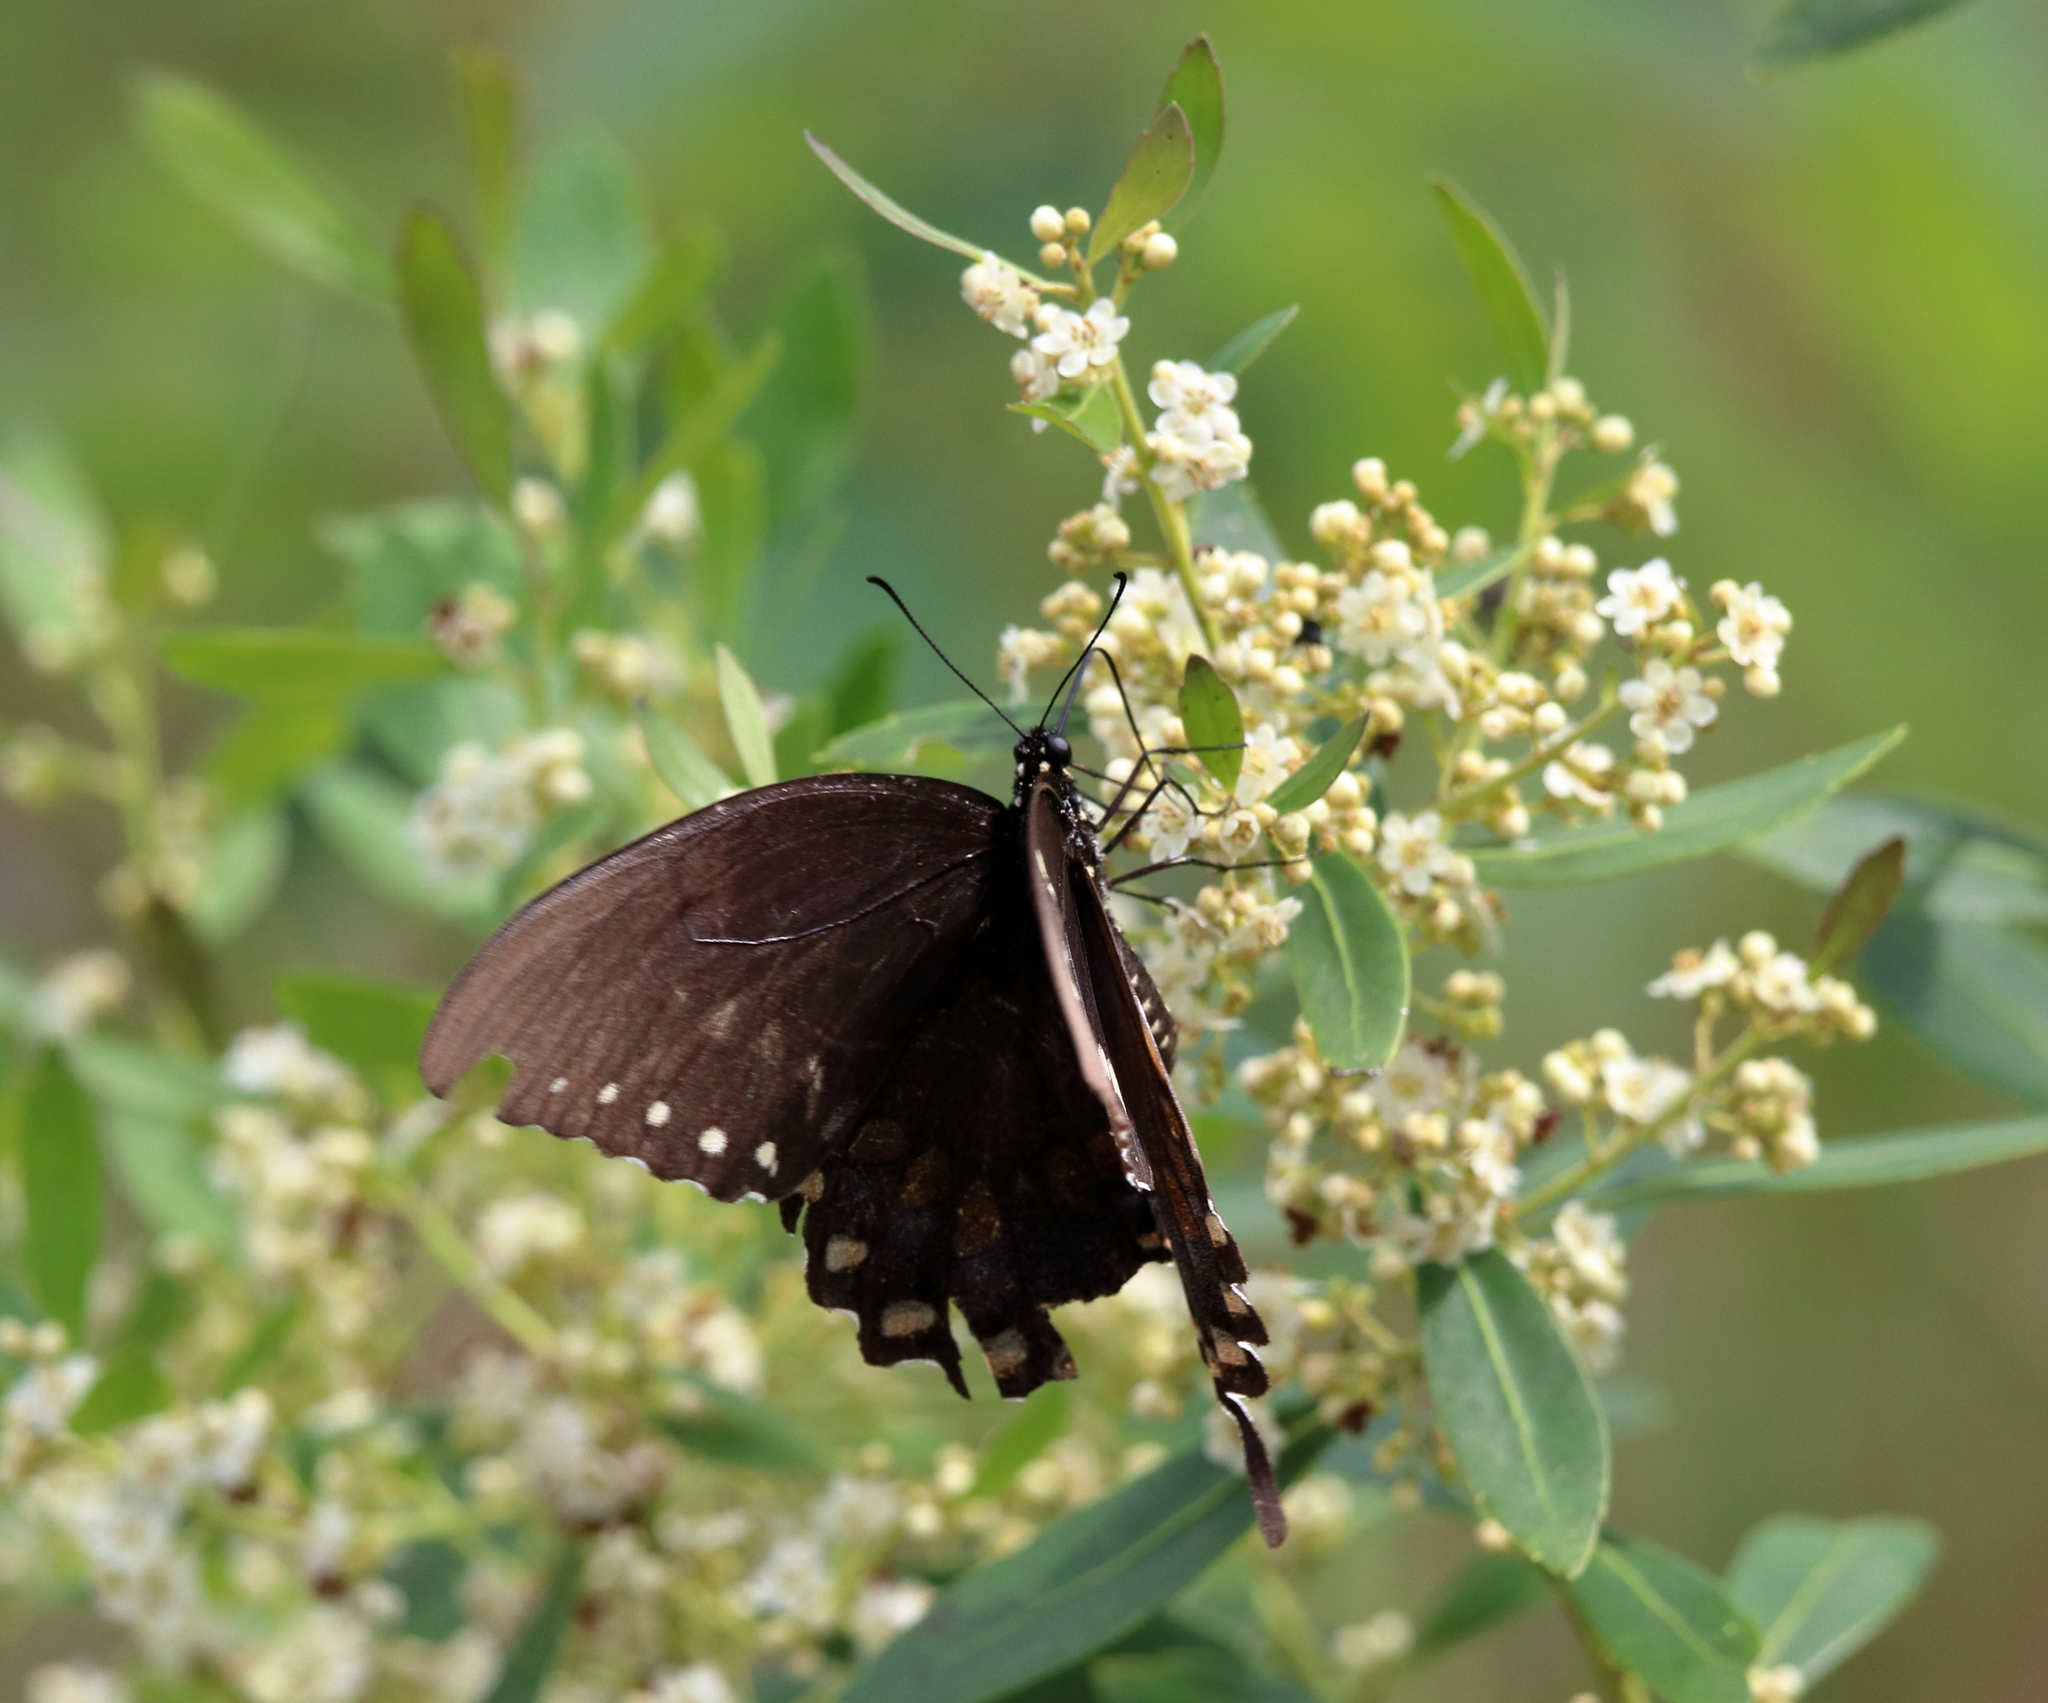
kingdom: Animalia
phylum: Arthropoda
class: Insecta
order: Lepidoptera
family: Papilionidae
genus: Papilio
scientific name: Papilio troilus
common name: Spicebush swallowtail
